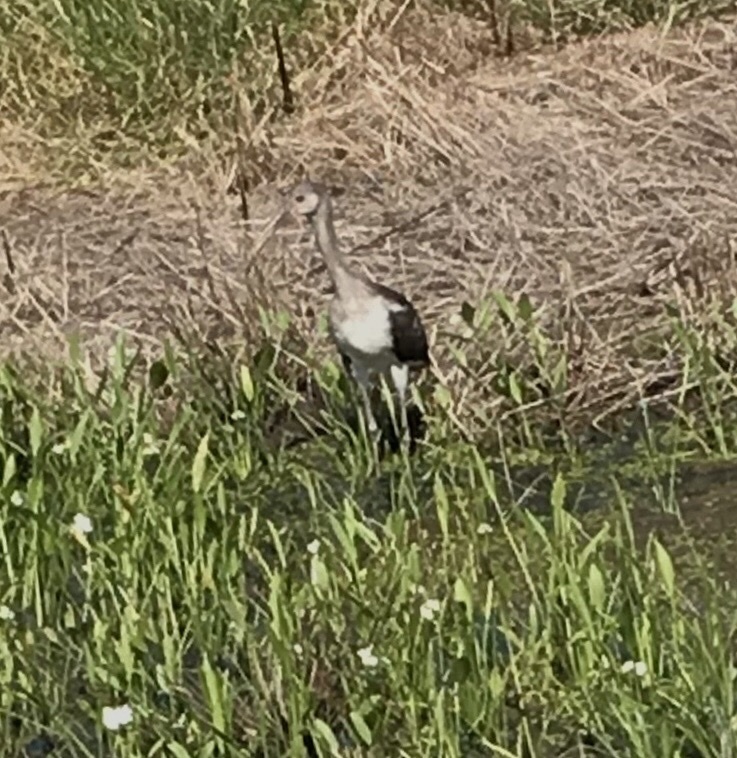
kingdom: Animalia
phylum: Chordata
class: Aves
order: Pelecaniformes
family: Threskiornithidae
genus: Eudocimus
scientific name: Eudocimus albus
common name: White ibis
